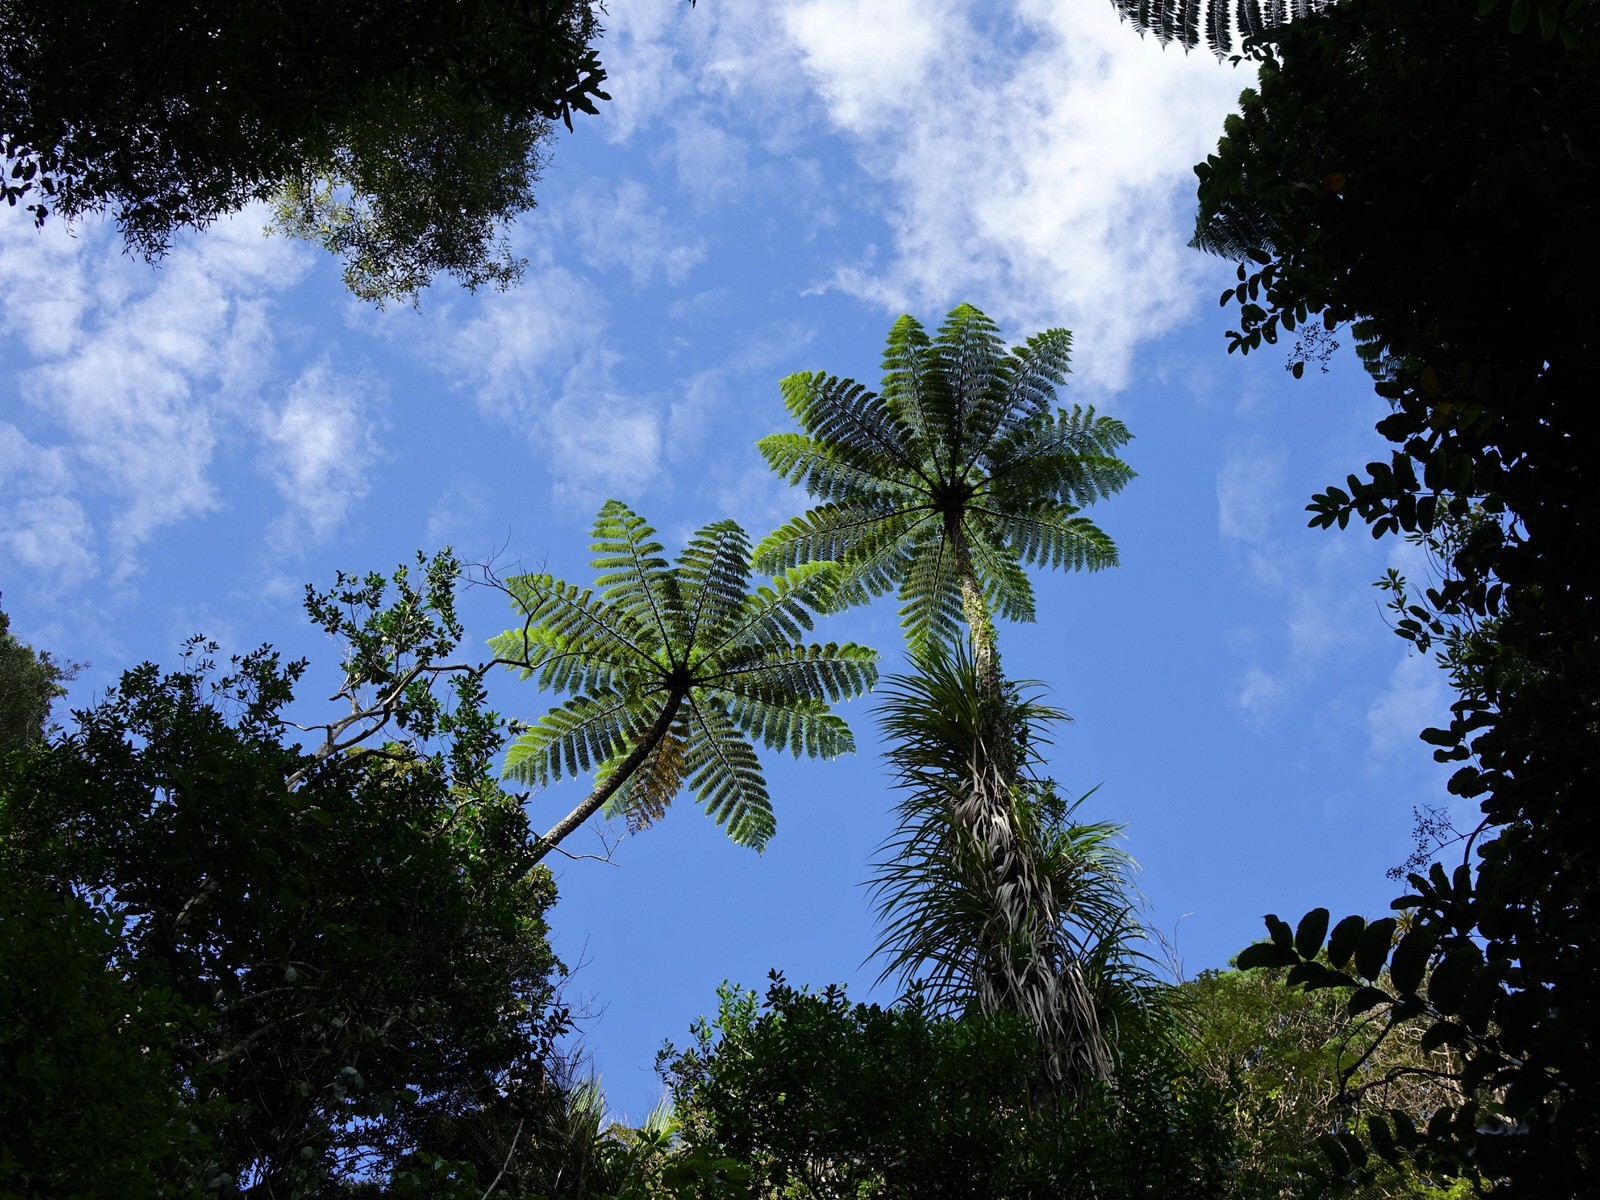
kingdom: Plantae
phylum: Tracheophyta
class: Polypodiopsida
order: Cyatheales
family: Cyatheaceae
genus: Sphaeropteris
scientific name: Sphaeropteris medullaris
